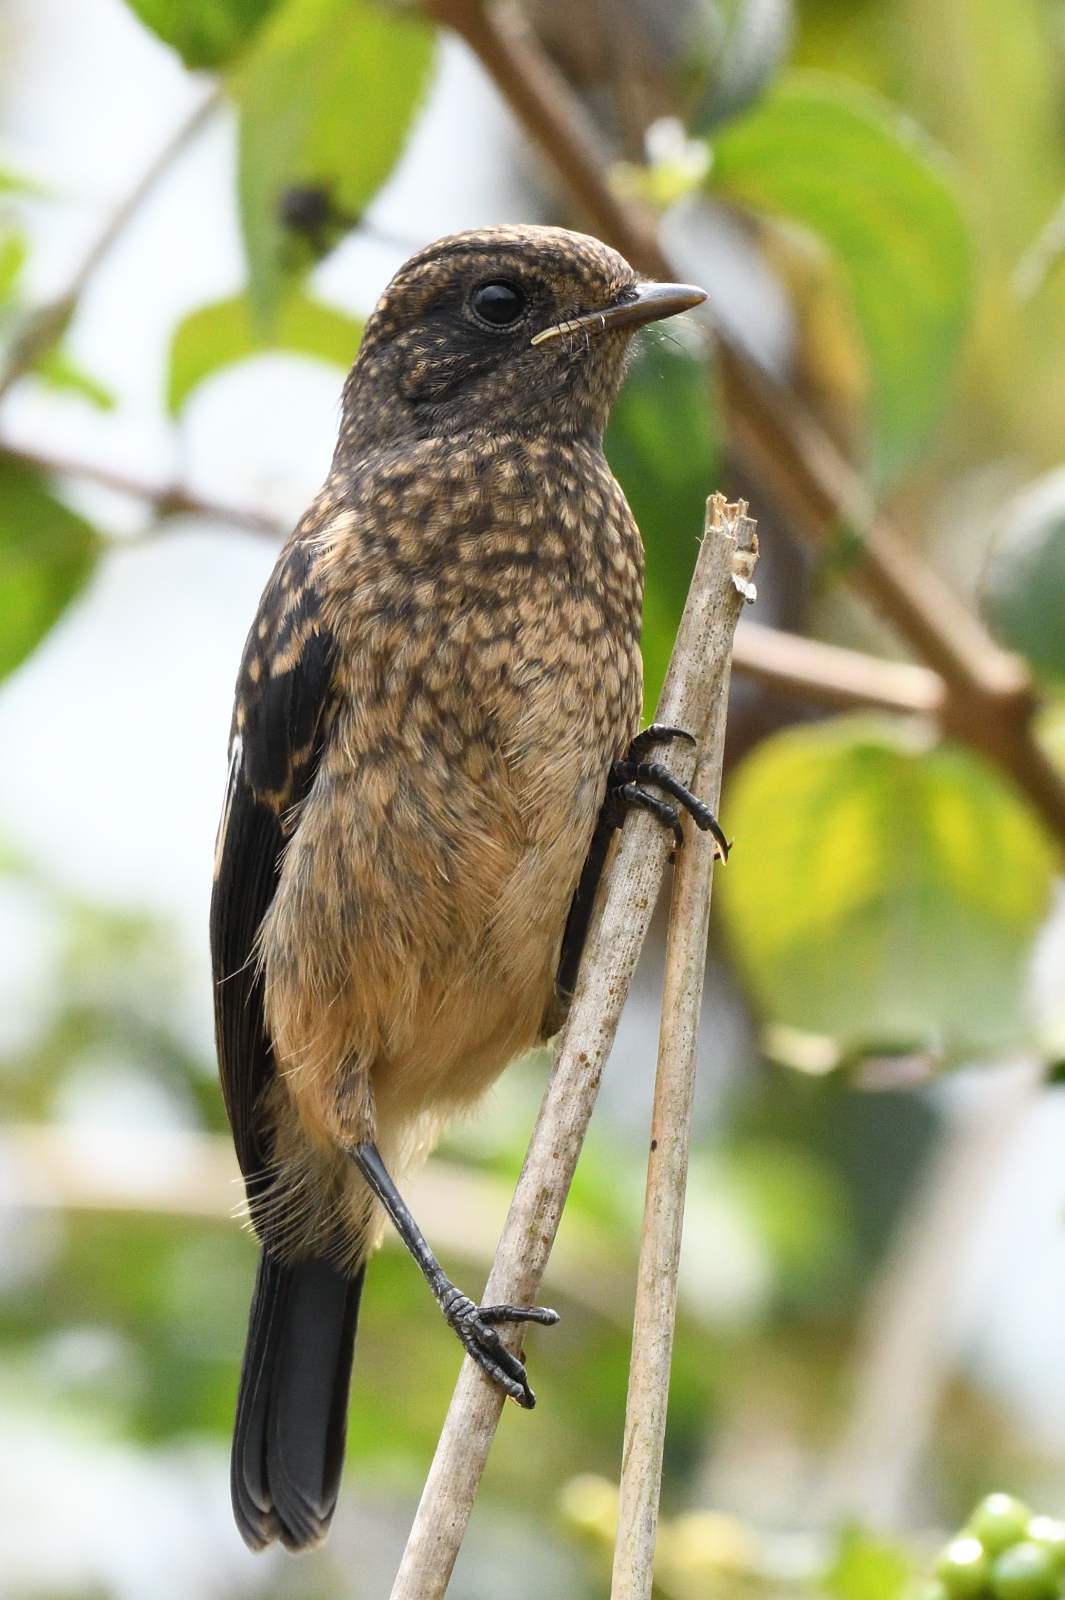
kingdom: Animalia
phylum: Chordata
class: Aves
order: Passeriformes
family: Muscicapidae
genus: Saxicola
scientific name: Saxicola caprata
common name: Pied bush chat
